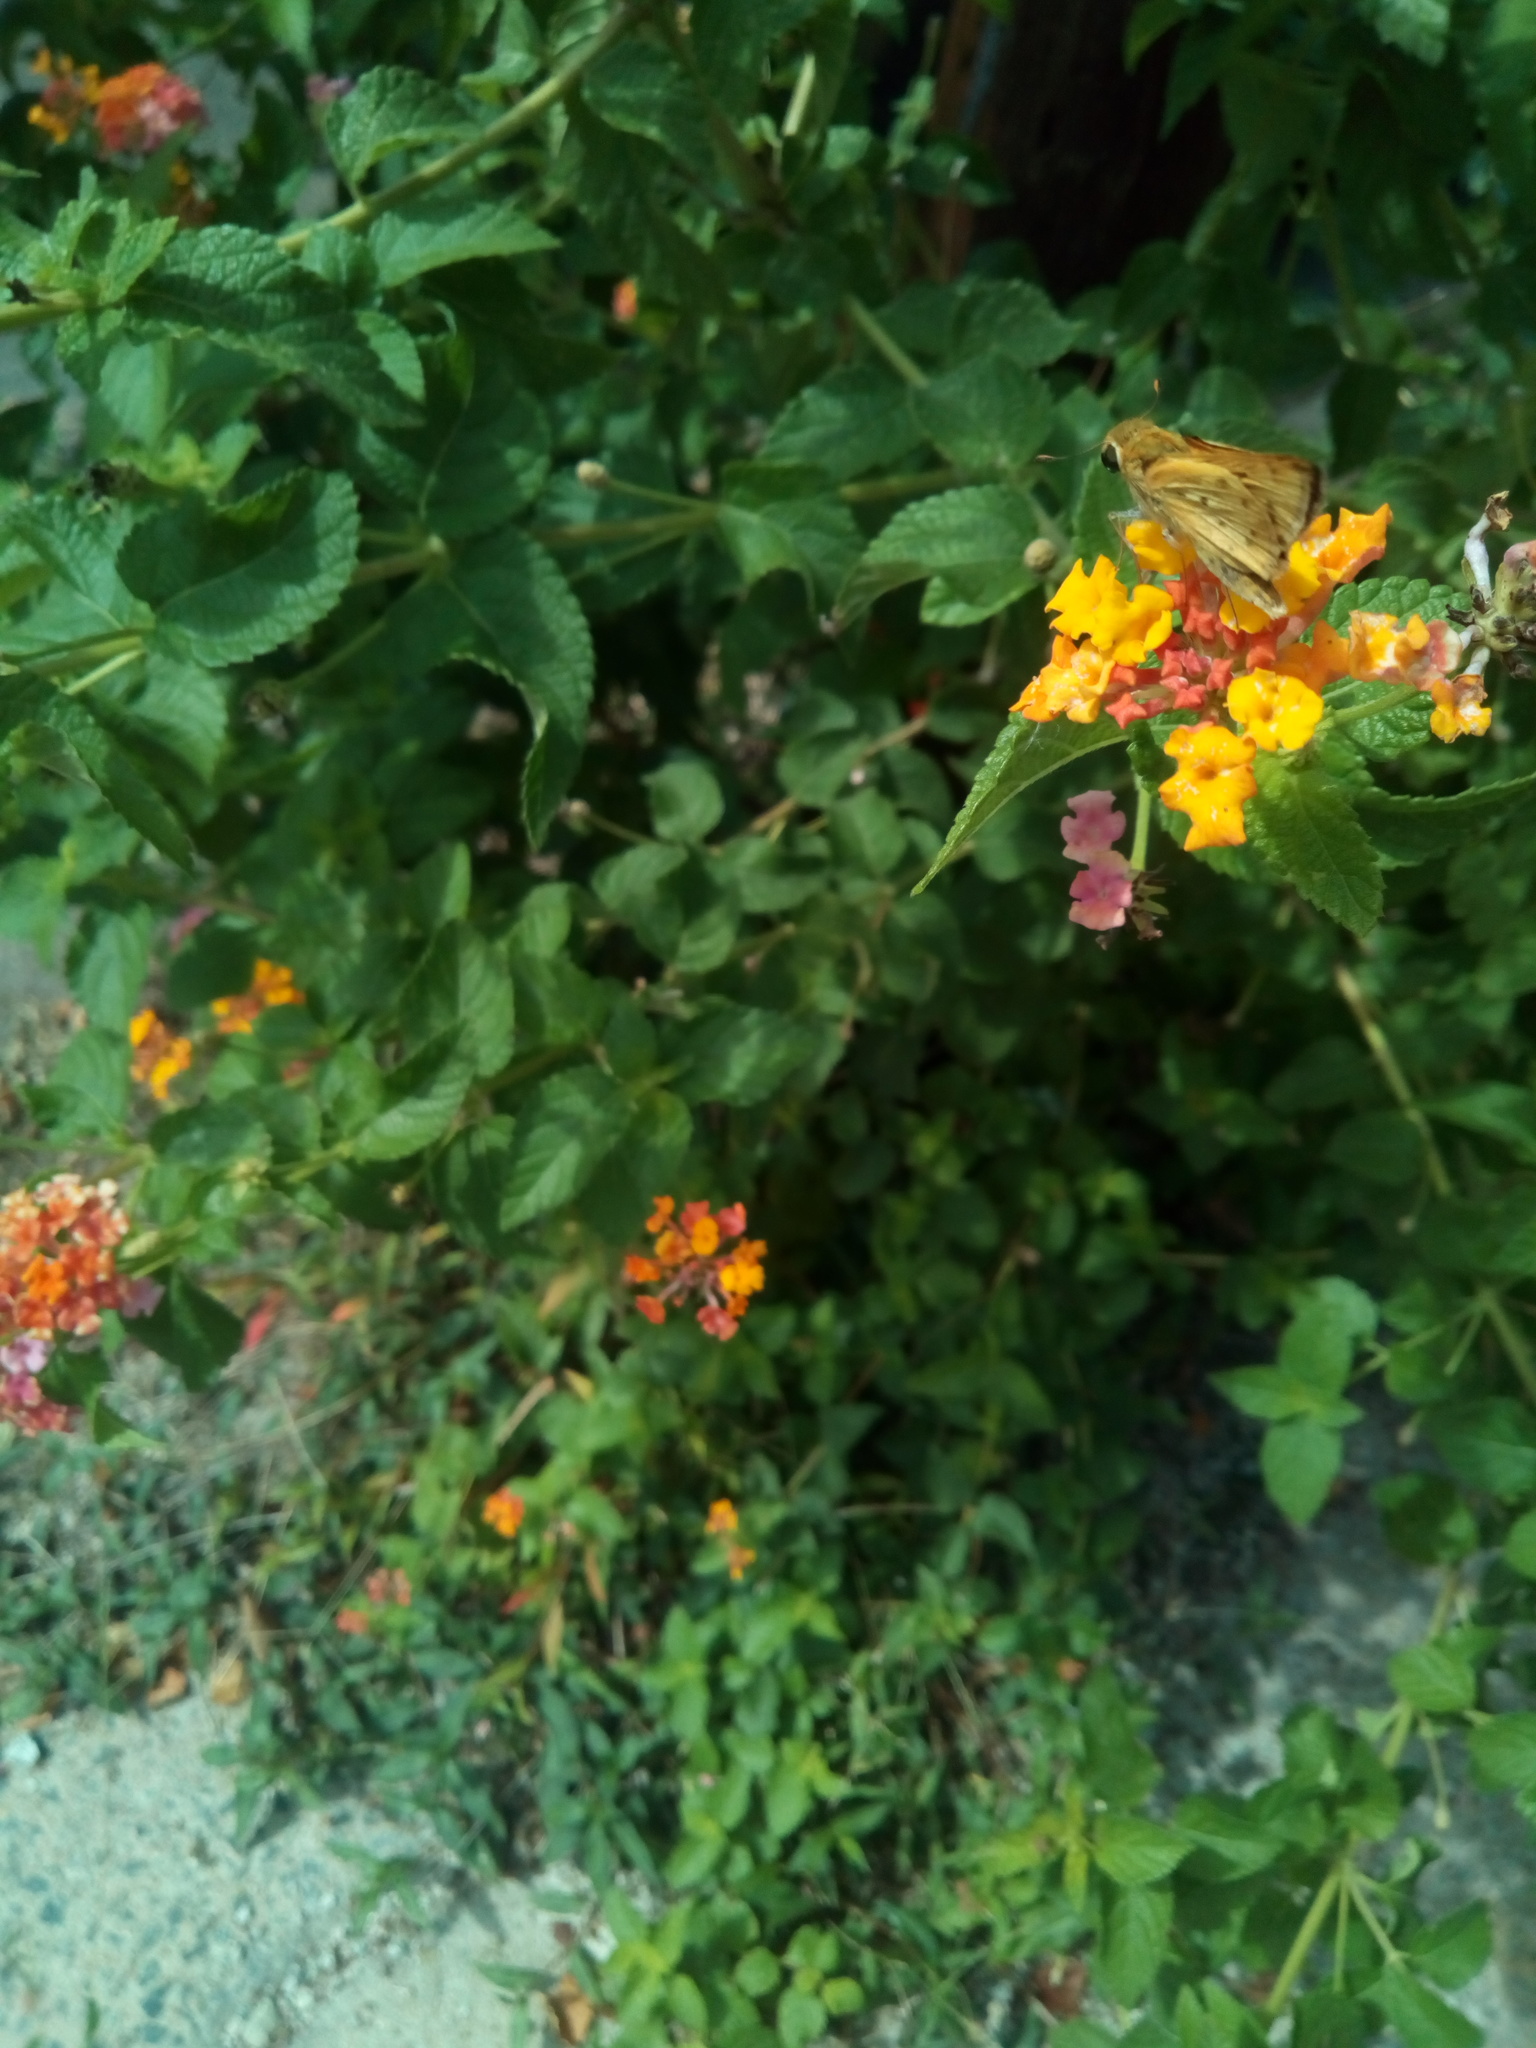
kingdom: Animalia
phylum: Arthropoda
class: Insecta
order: Lepidoptera
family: Hesperiidae
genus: Hylephila
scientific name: Hylephila phyleus
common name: Fiery skipper
